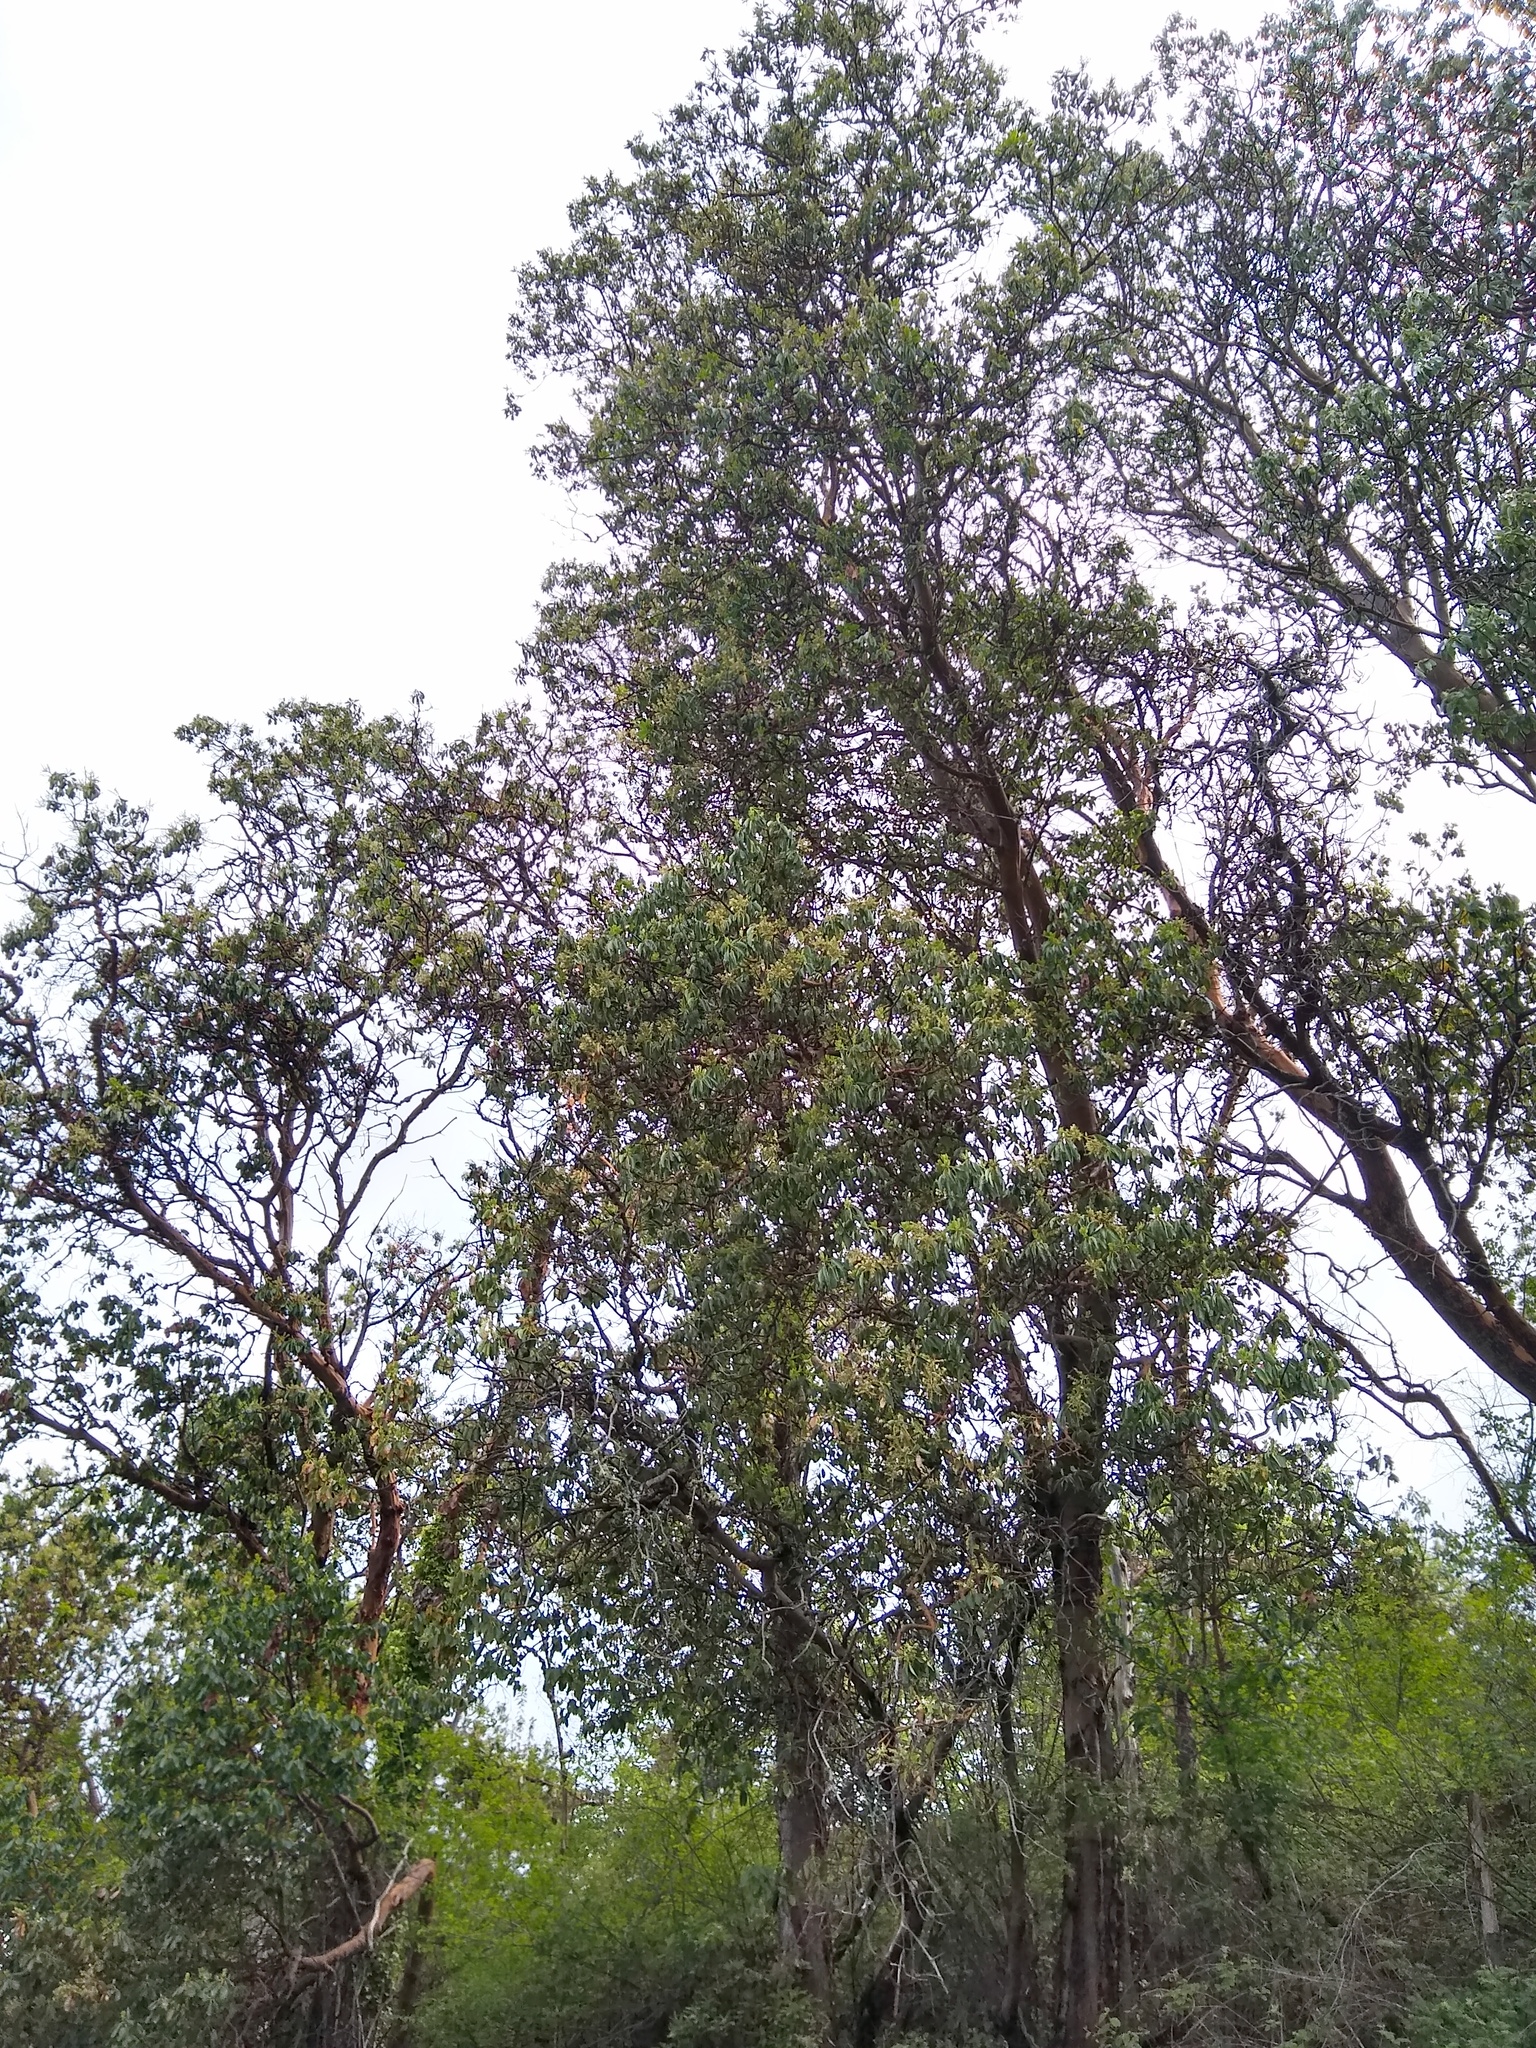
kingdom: Plantae
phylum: Tracheophyta
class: Magnoliopsida
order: Ericales
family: Ericaceae
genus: Arbutus
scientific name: Arbutus menziesii
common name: Pacific madrone
